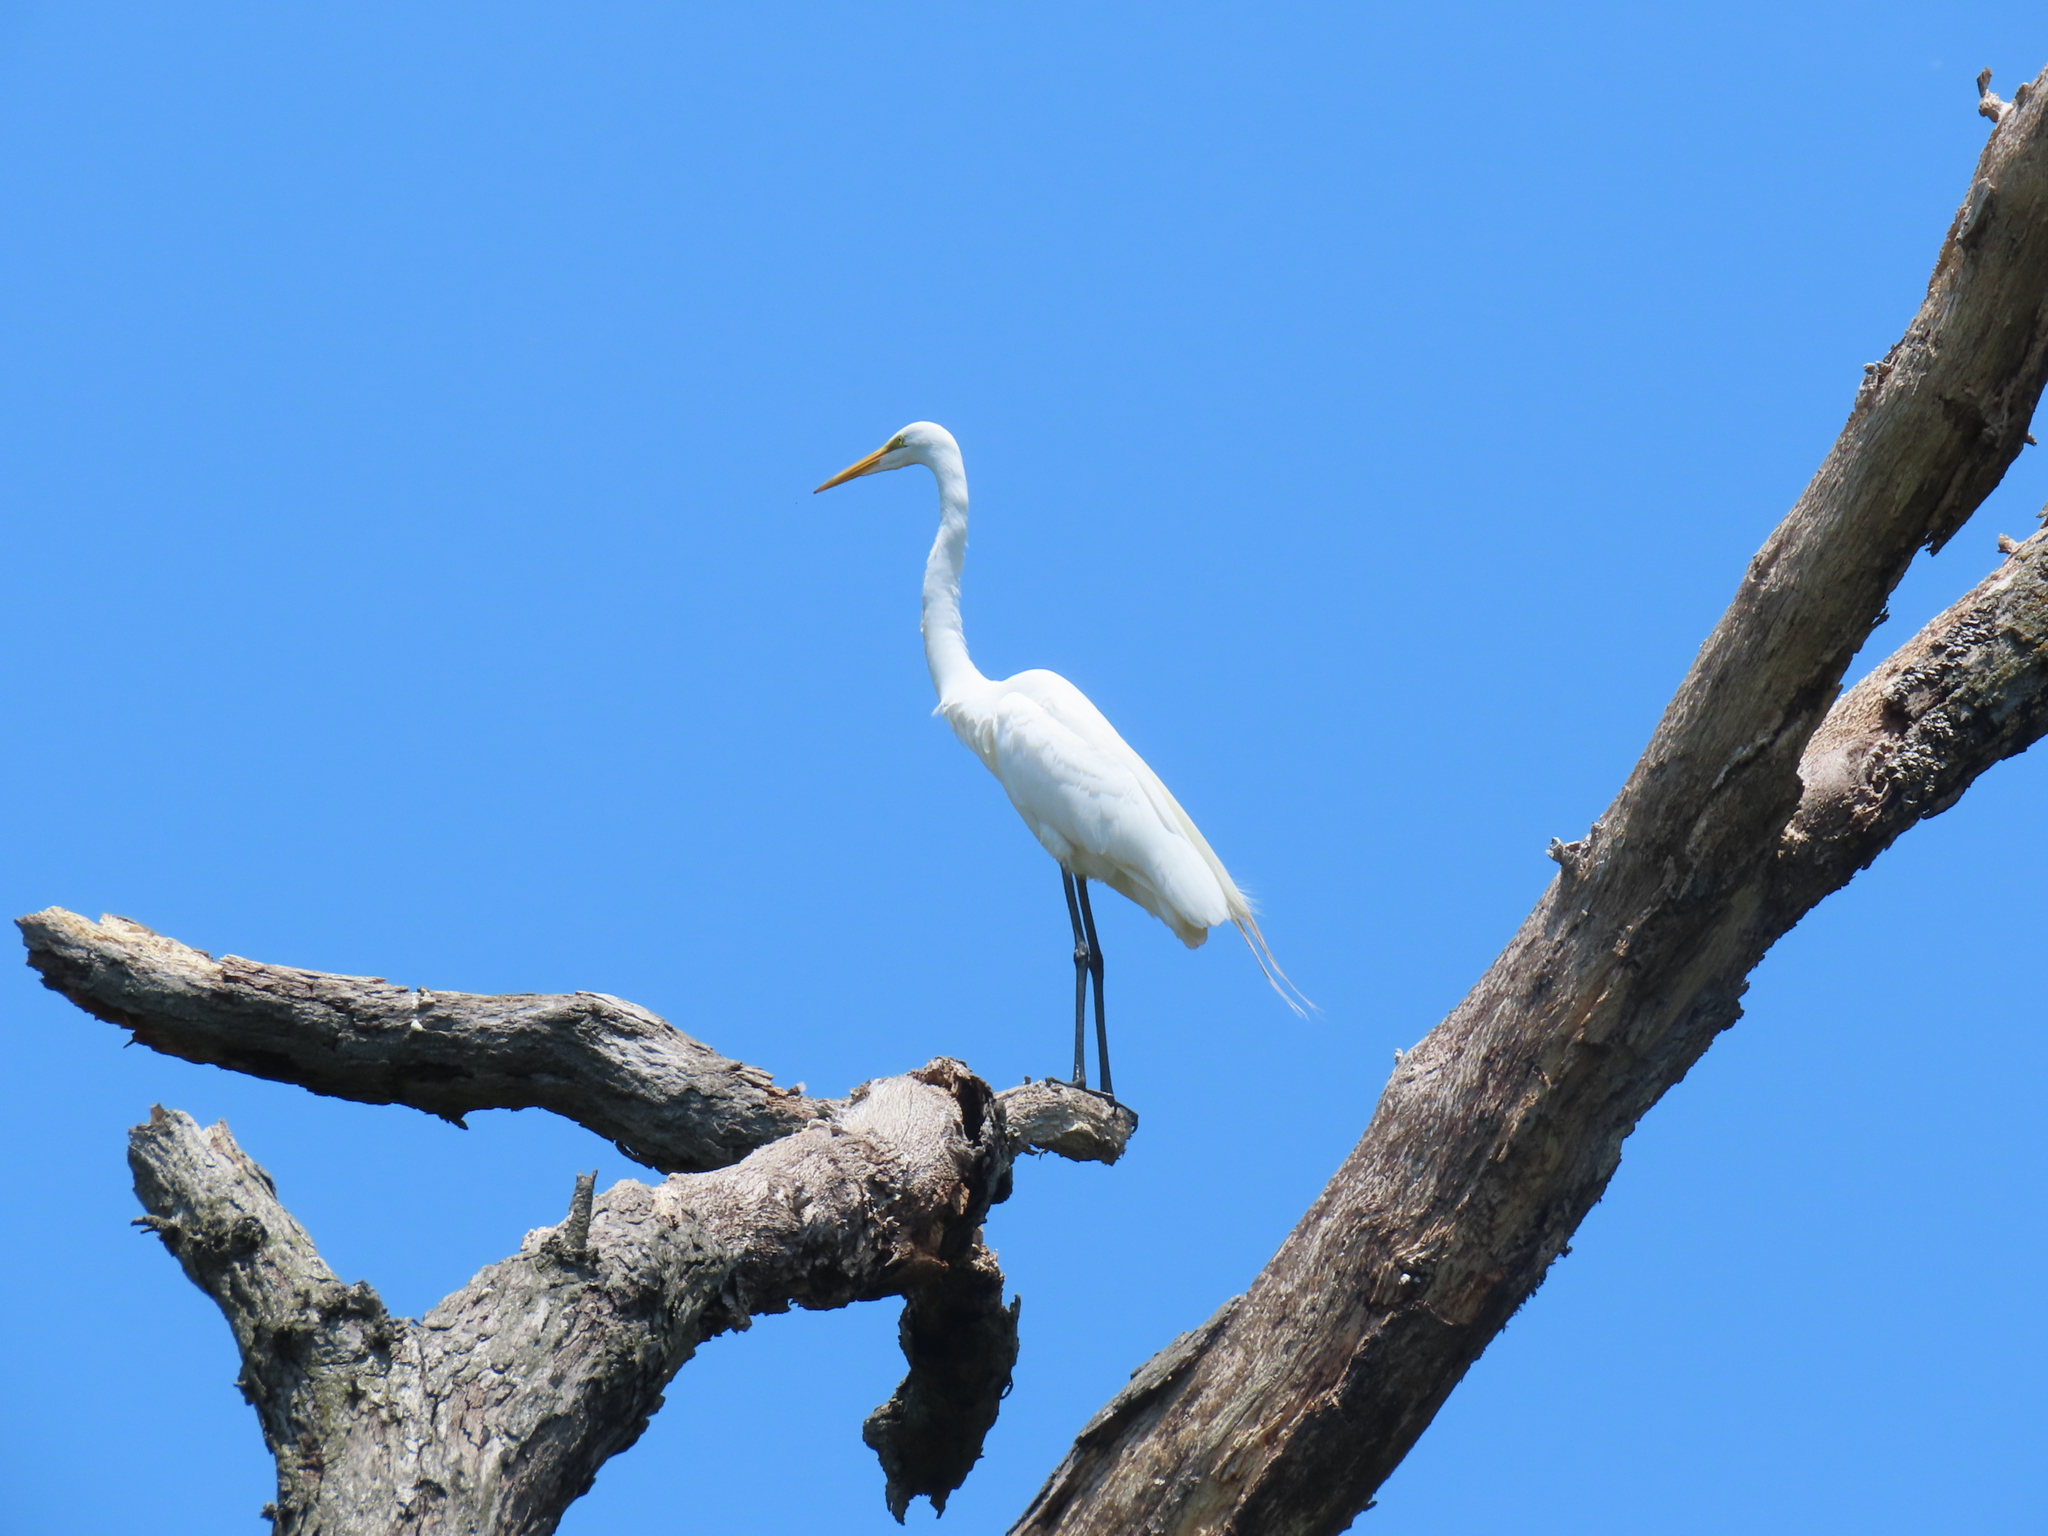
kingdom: Animalia
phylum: Chordata
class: Aves
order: Pelecaniformes
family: Ardeidae
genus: Ardea
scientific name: Ardea alba
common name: Great egret
